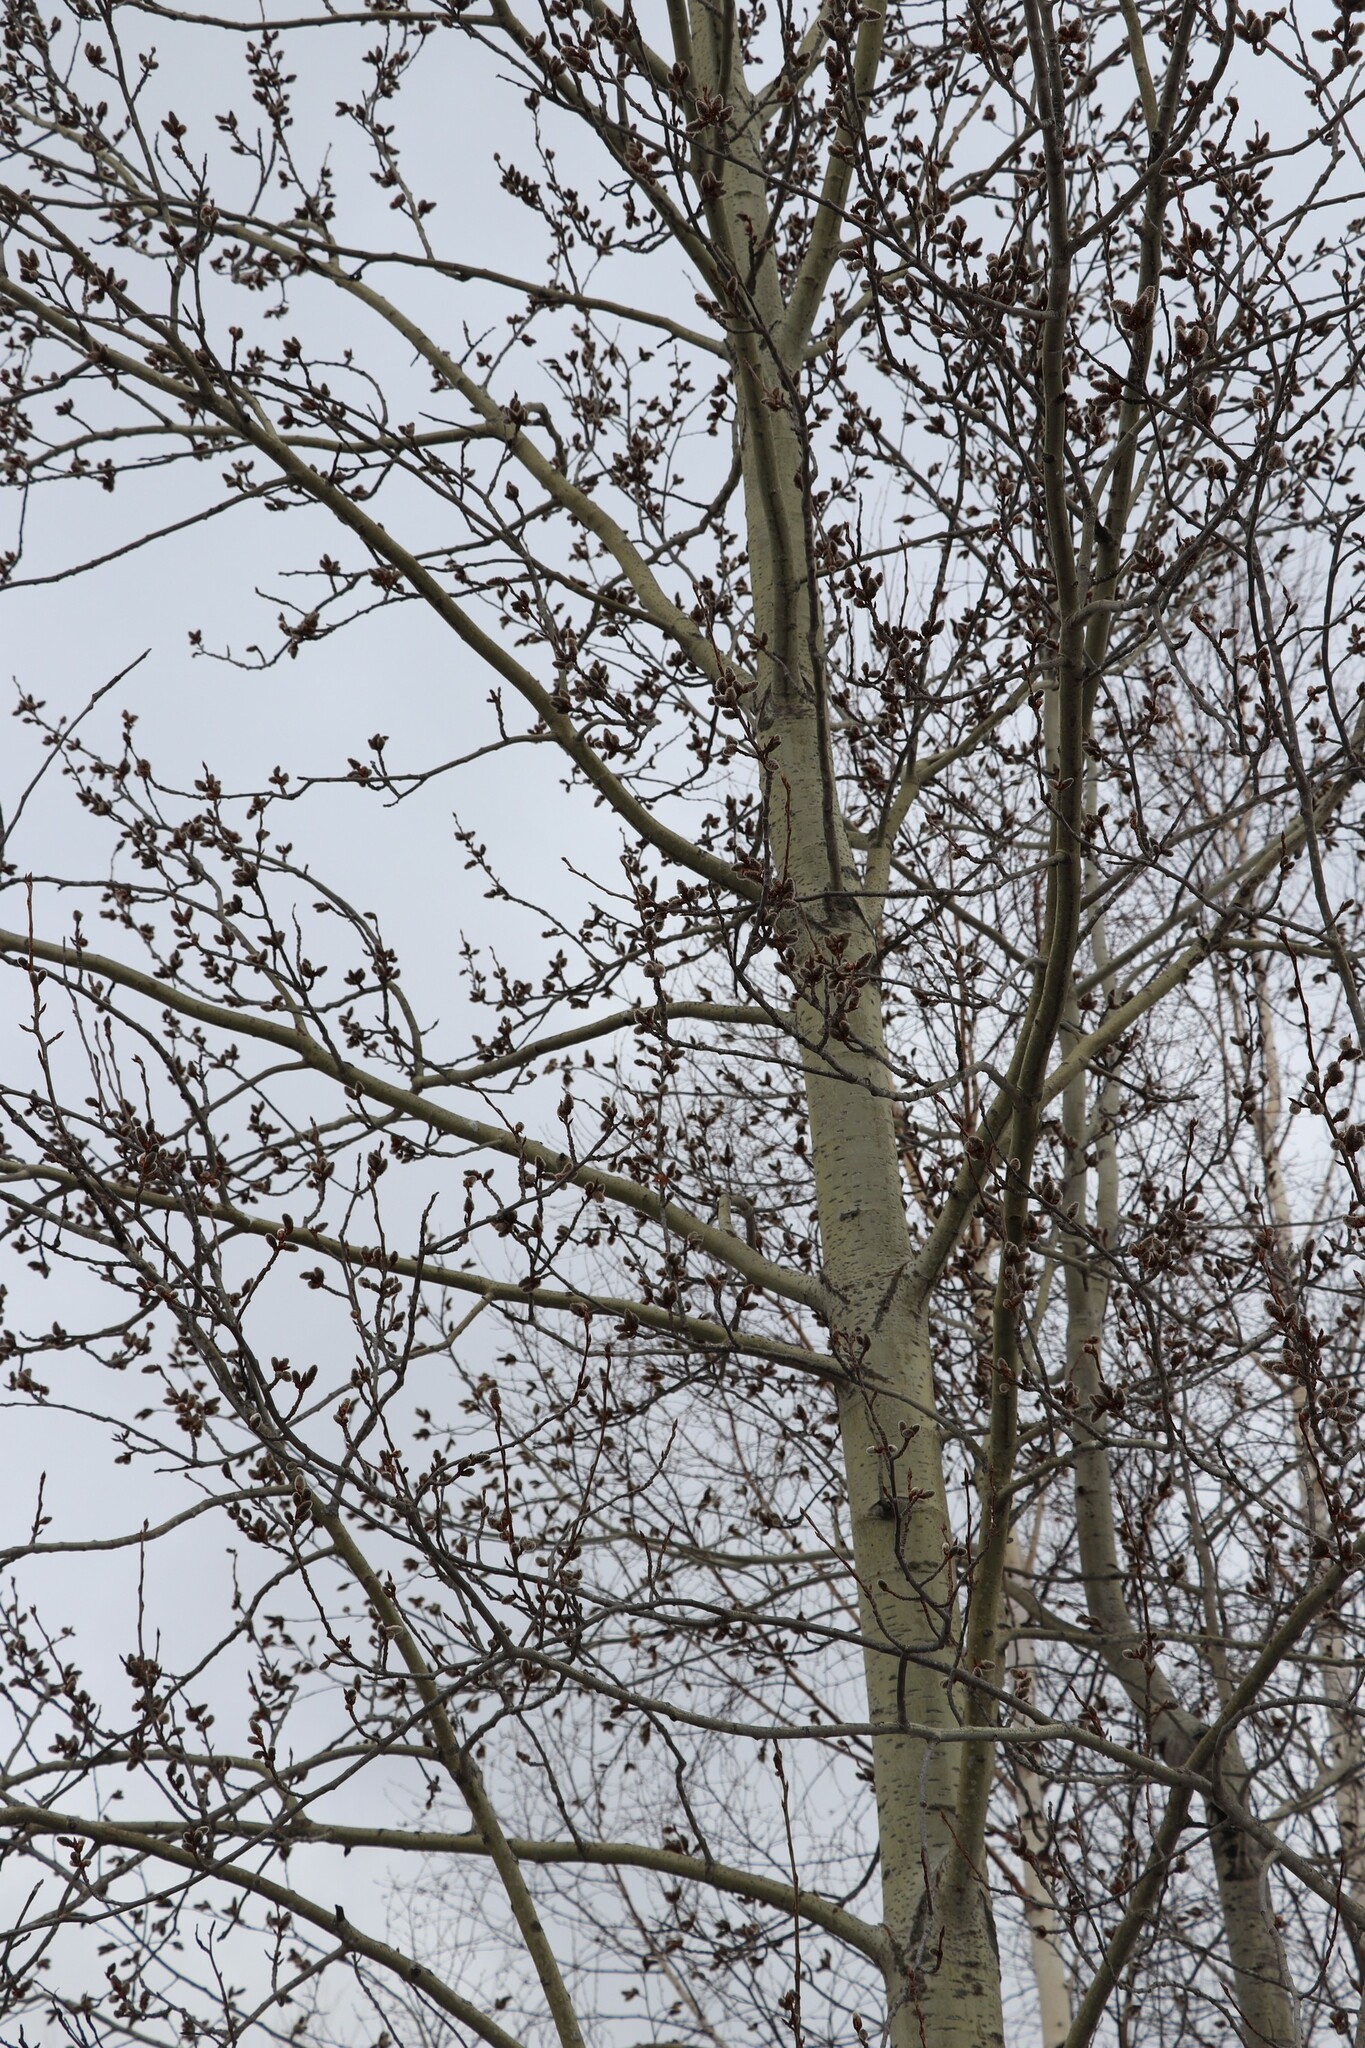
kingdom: Plantae
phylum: Tracheophyta
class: Magnoliopsida
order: Malpighiales
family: Salicaceae
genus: Populus
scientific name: Populus tremula
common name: European aspen
